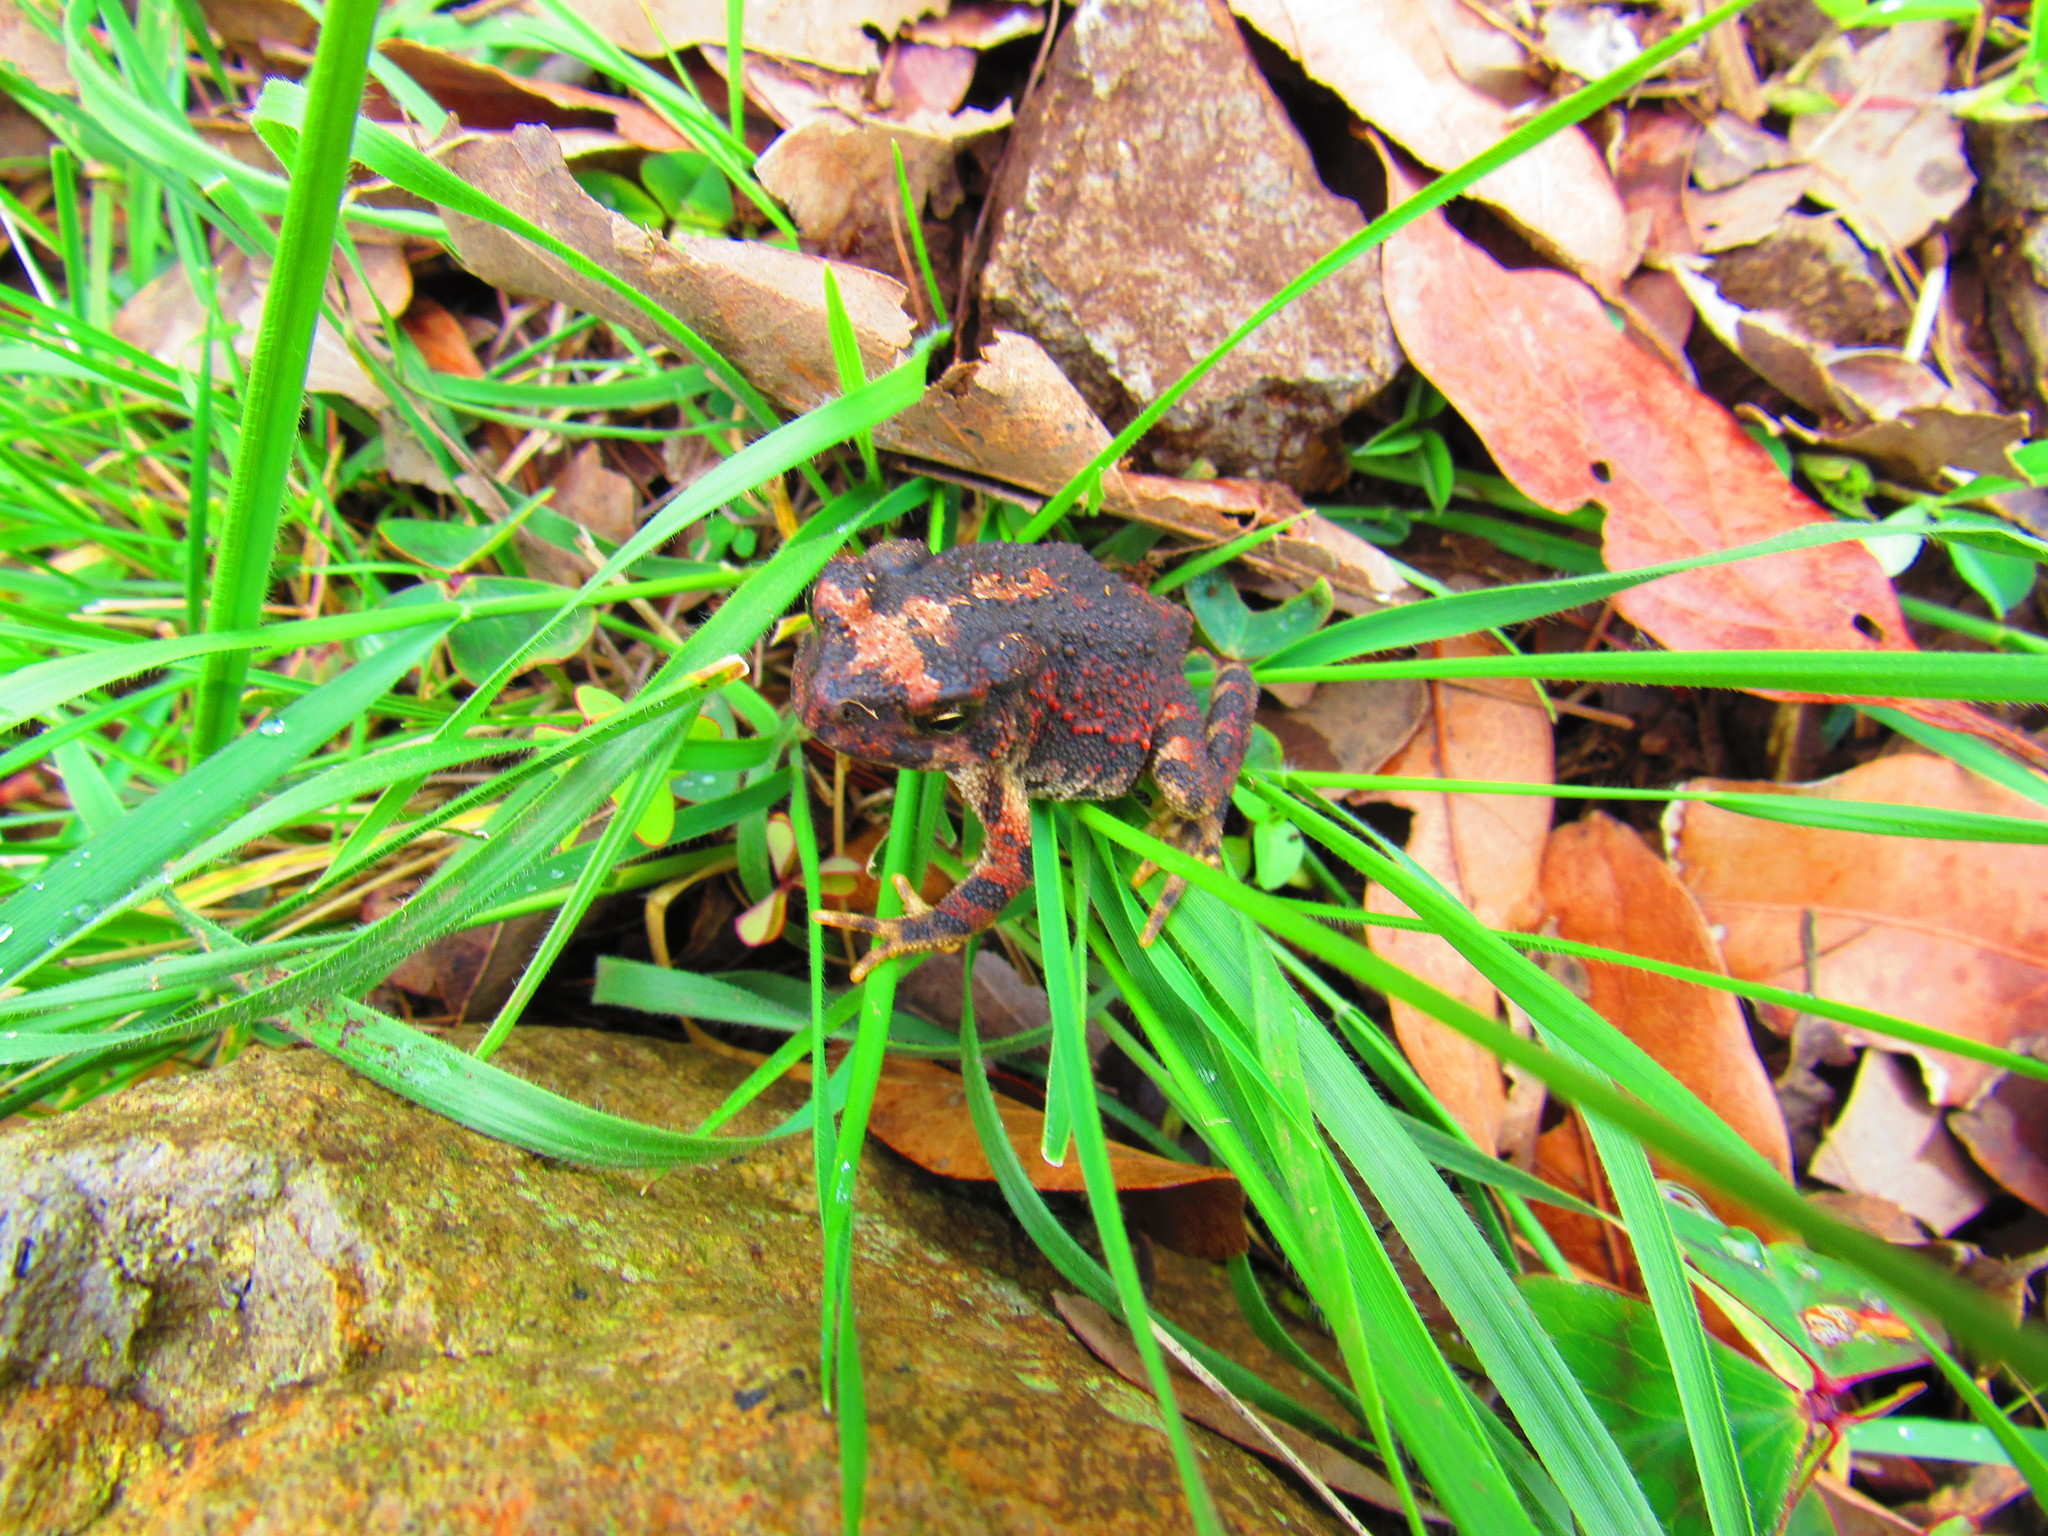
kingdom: Animalia
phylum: Chordata
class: Amphibia
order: Anura
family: Bufonidae
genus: Incilius
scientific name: Incilius occidentalis
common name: Pine toad
